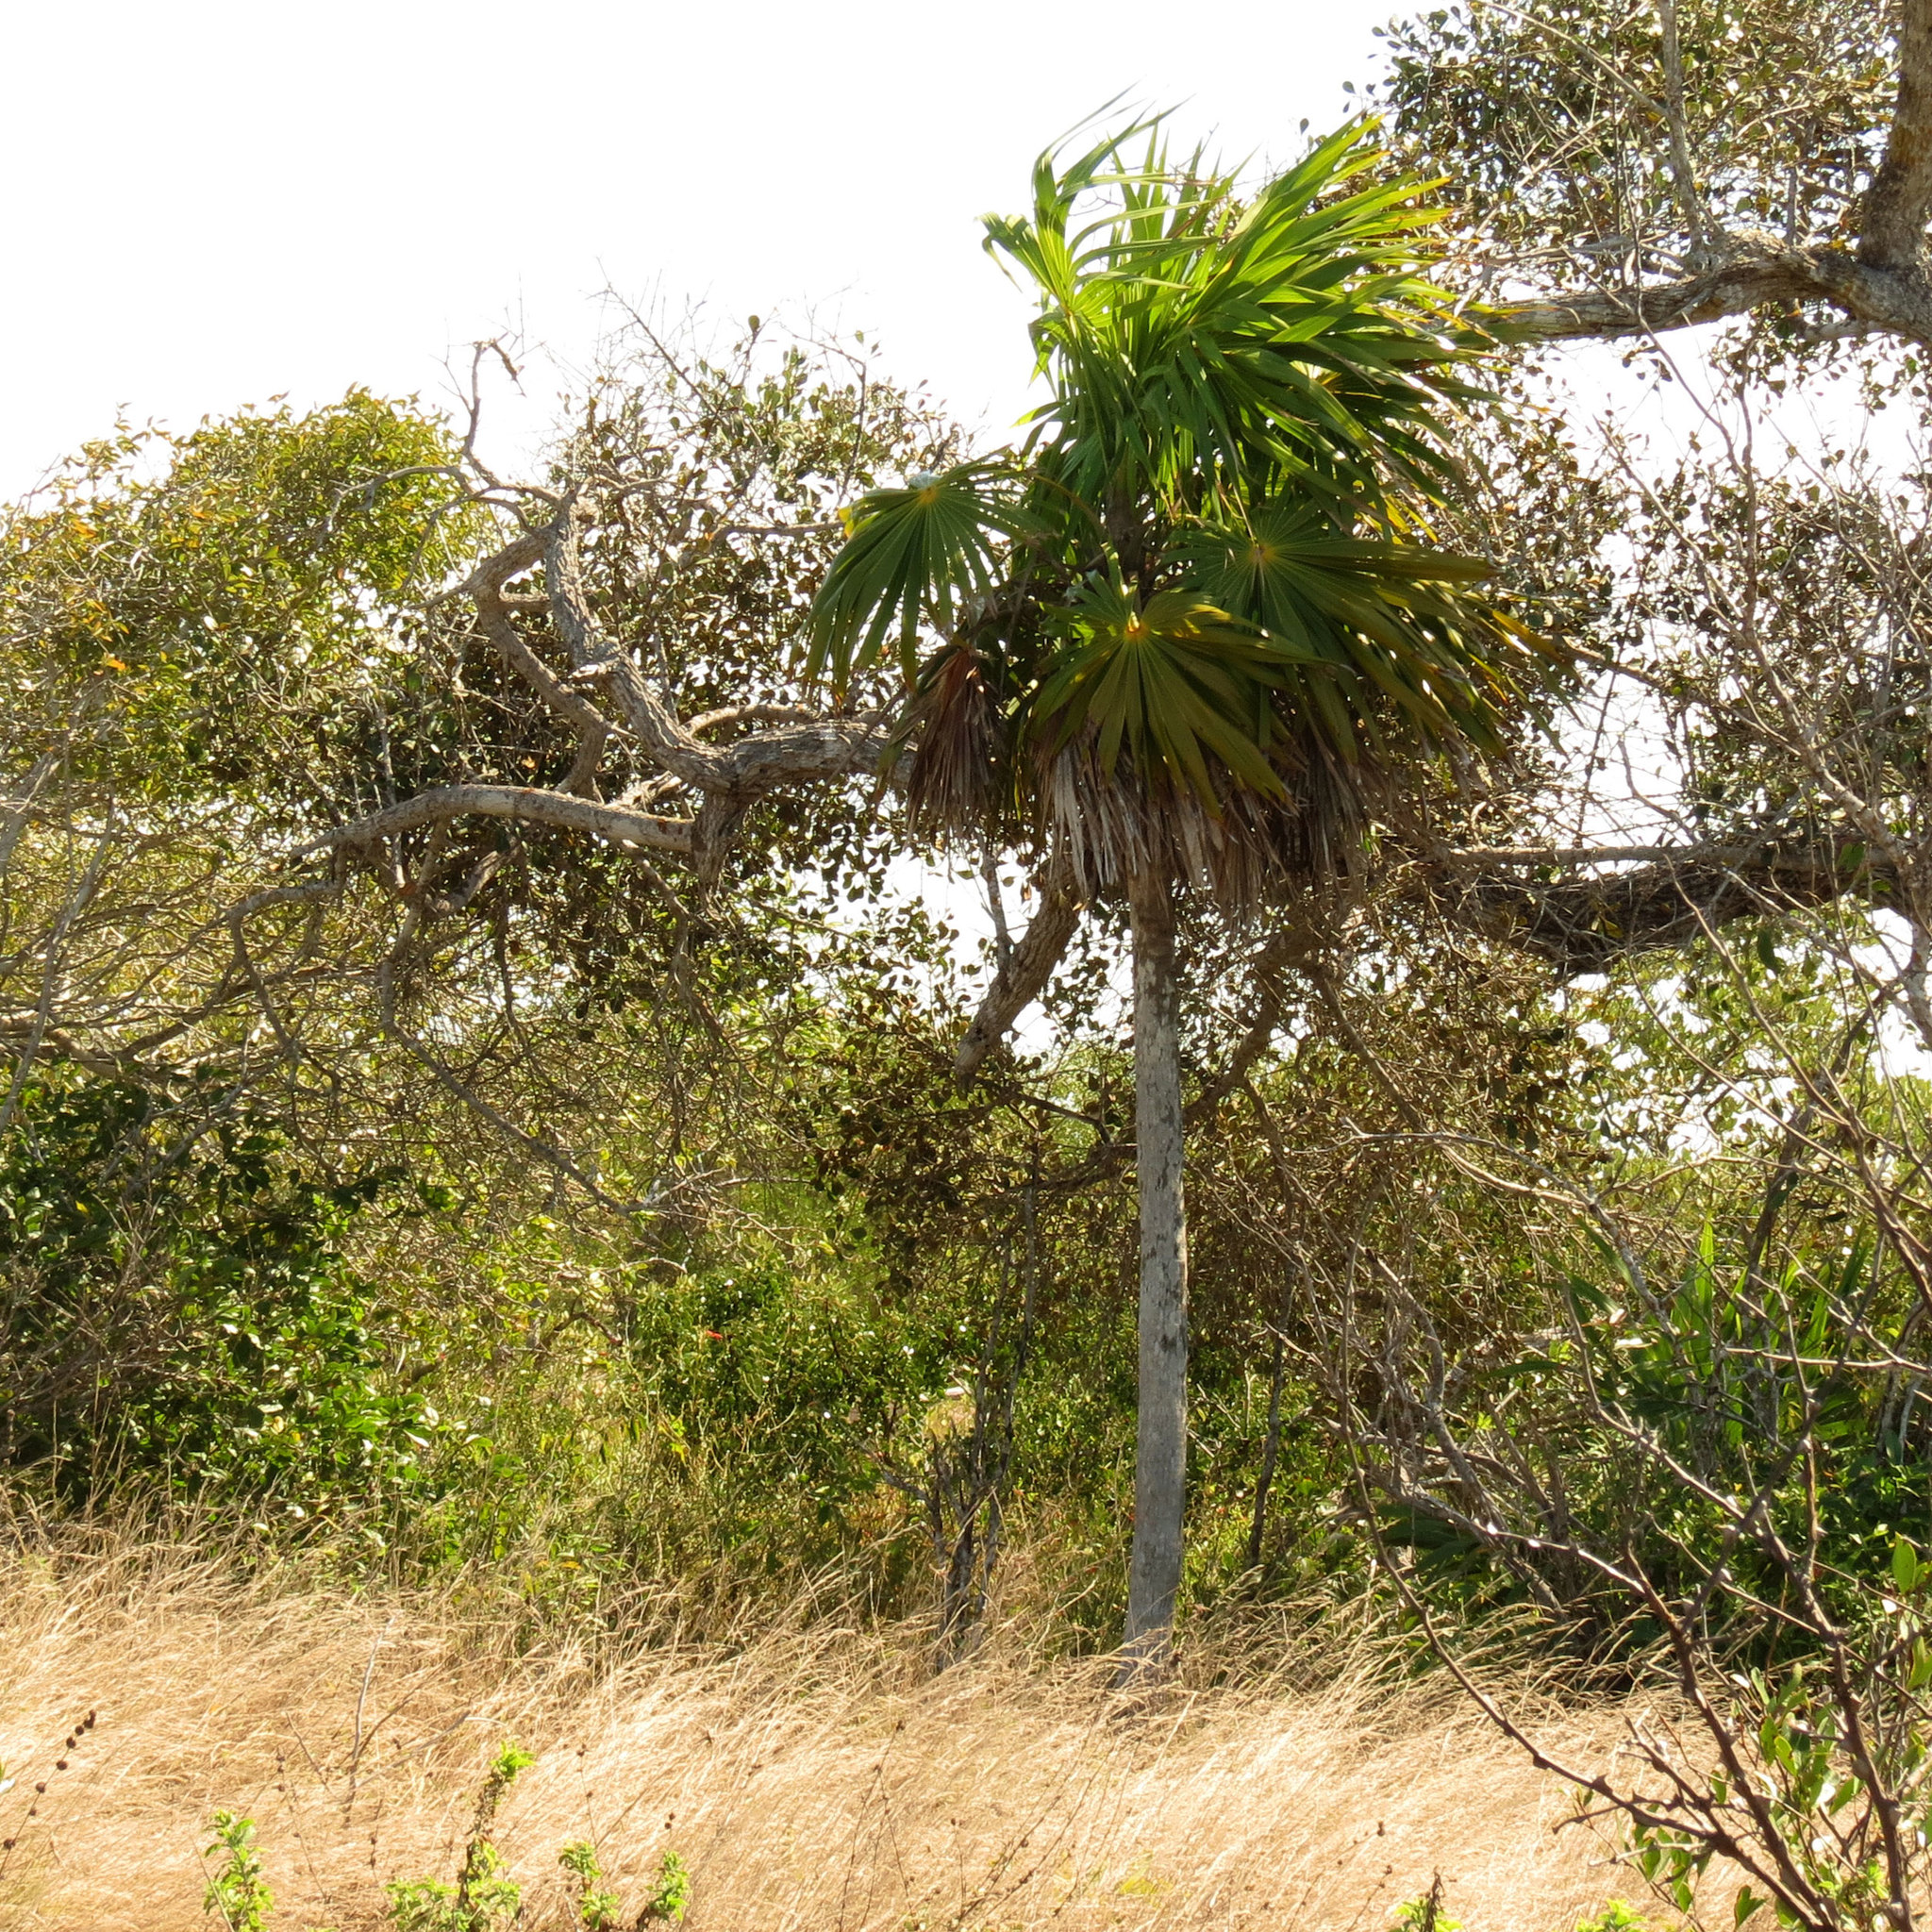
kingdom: Plantae
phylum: Tracheophyta
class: Liliopsida
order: Arecales
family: Arecaceae
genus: Thrinax
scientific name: Thrinax radiata
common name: Florida thatch
